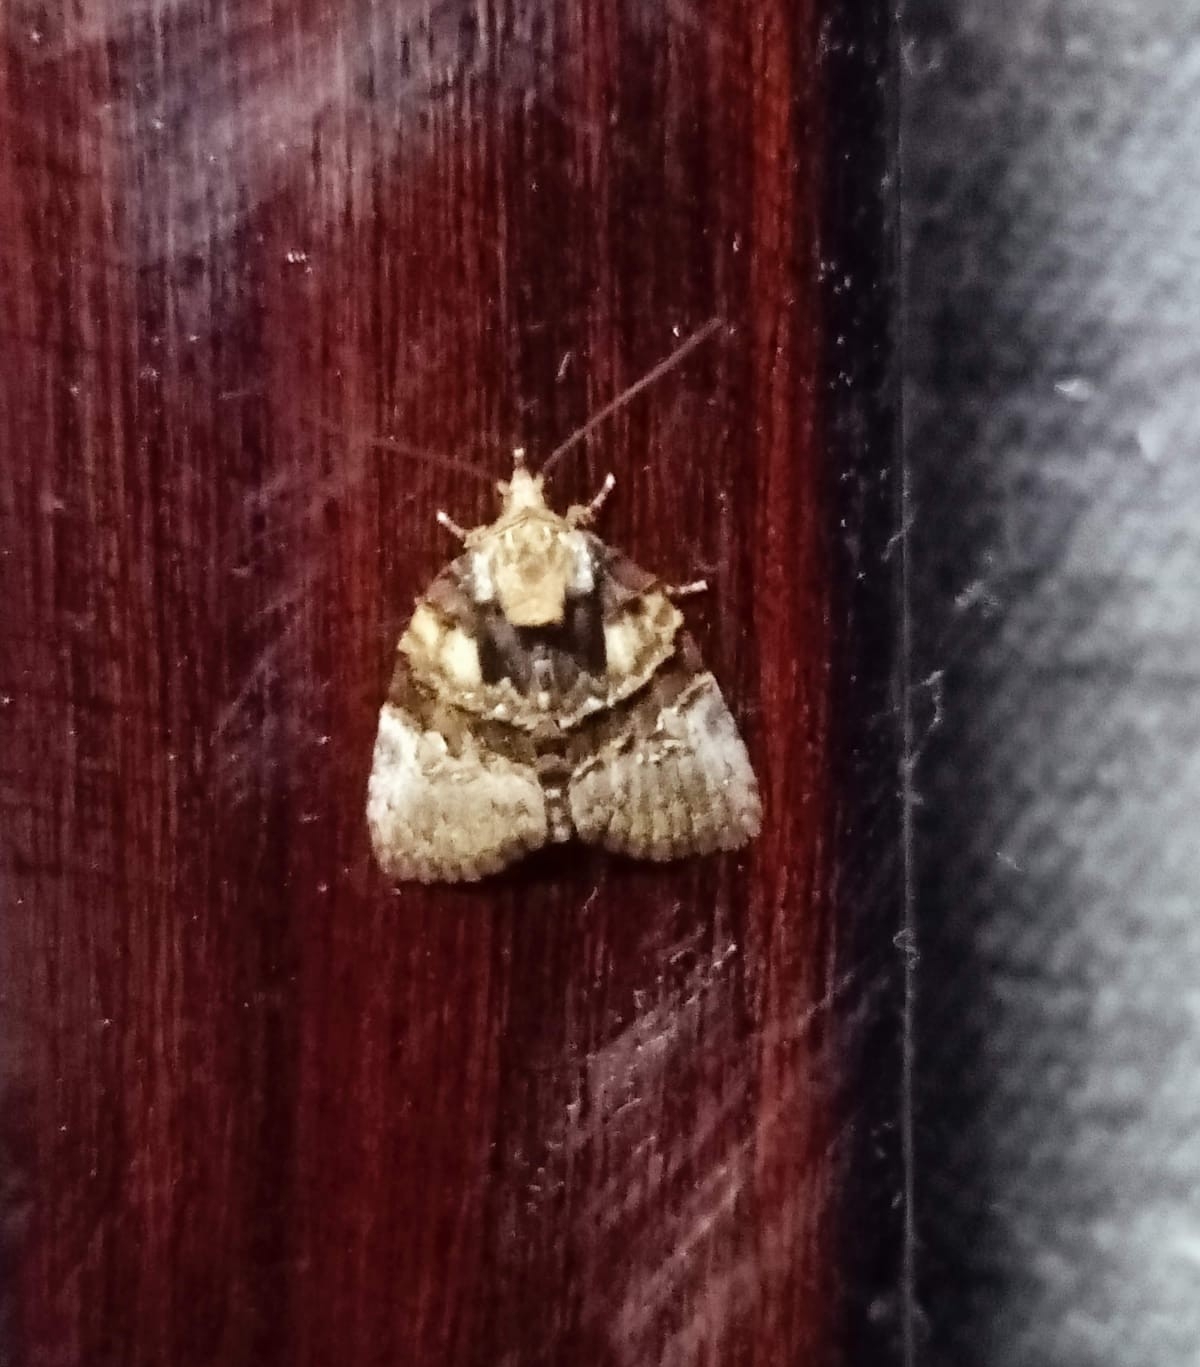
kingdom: Animalia
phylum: Arthropoda
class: Insecta
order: Lepidoptera
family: Nolidae
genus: Lophothripa
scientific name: Lophothripa vitea
